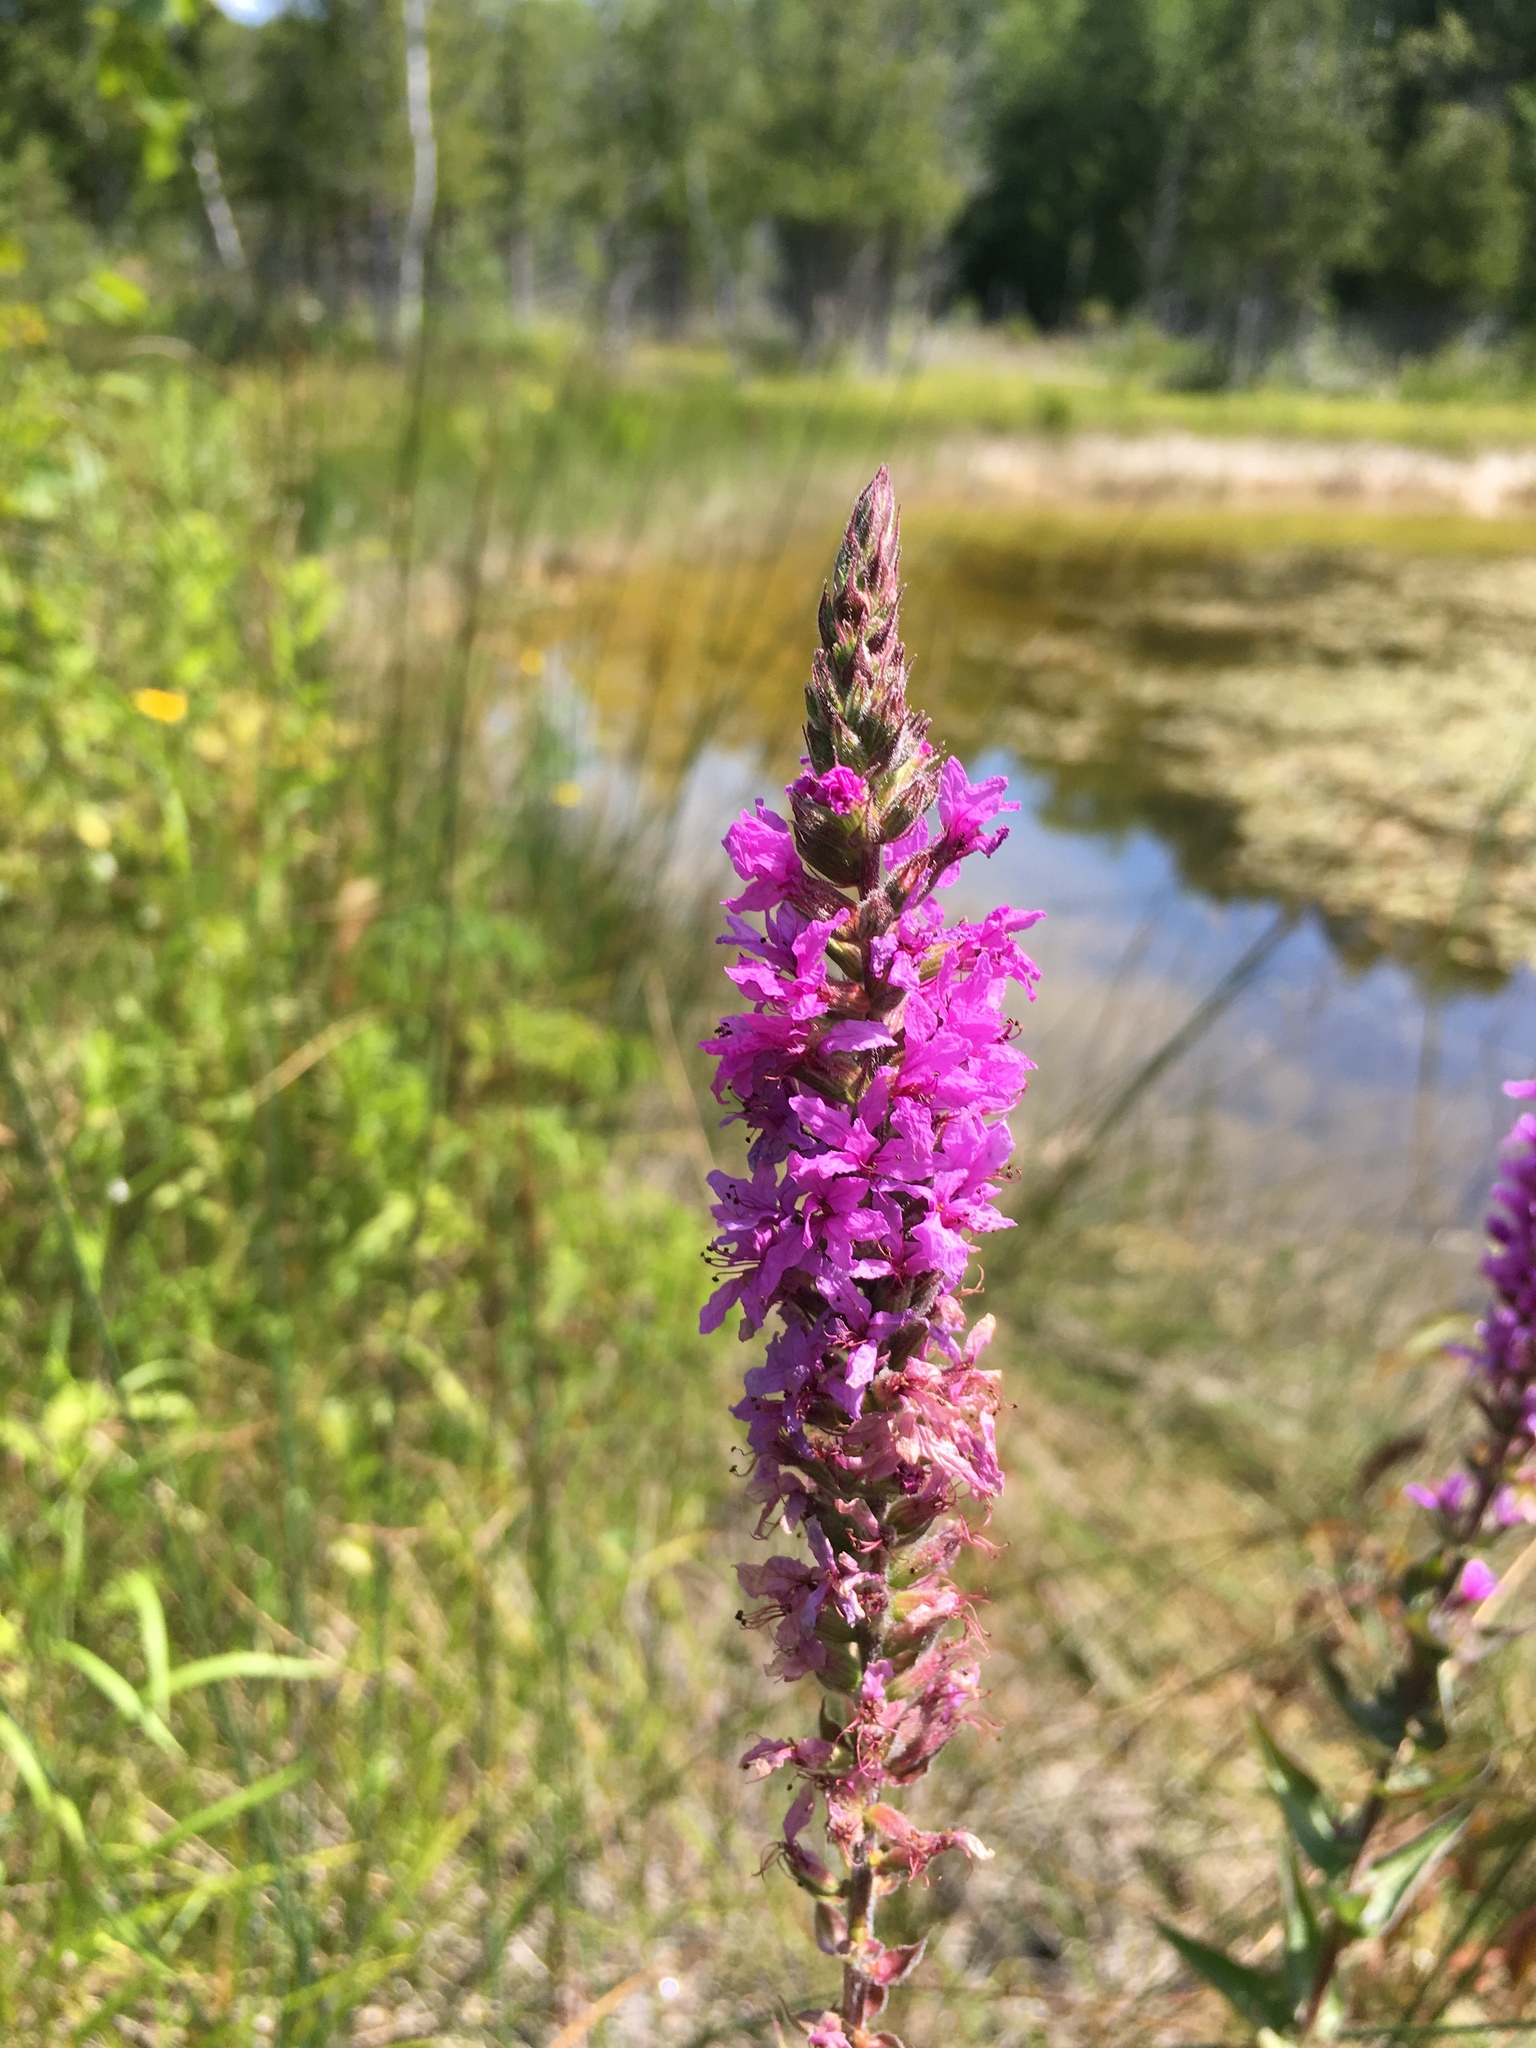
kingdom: Plantae
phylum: Tracheophyta
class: Magnoliopsida
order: Myrtales
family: Lythraceae
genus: Lythrum
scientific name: Lythrum salicaria
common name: Purple loosestrife
